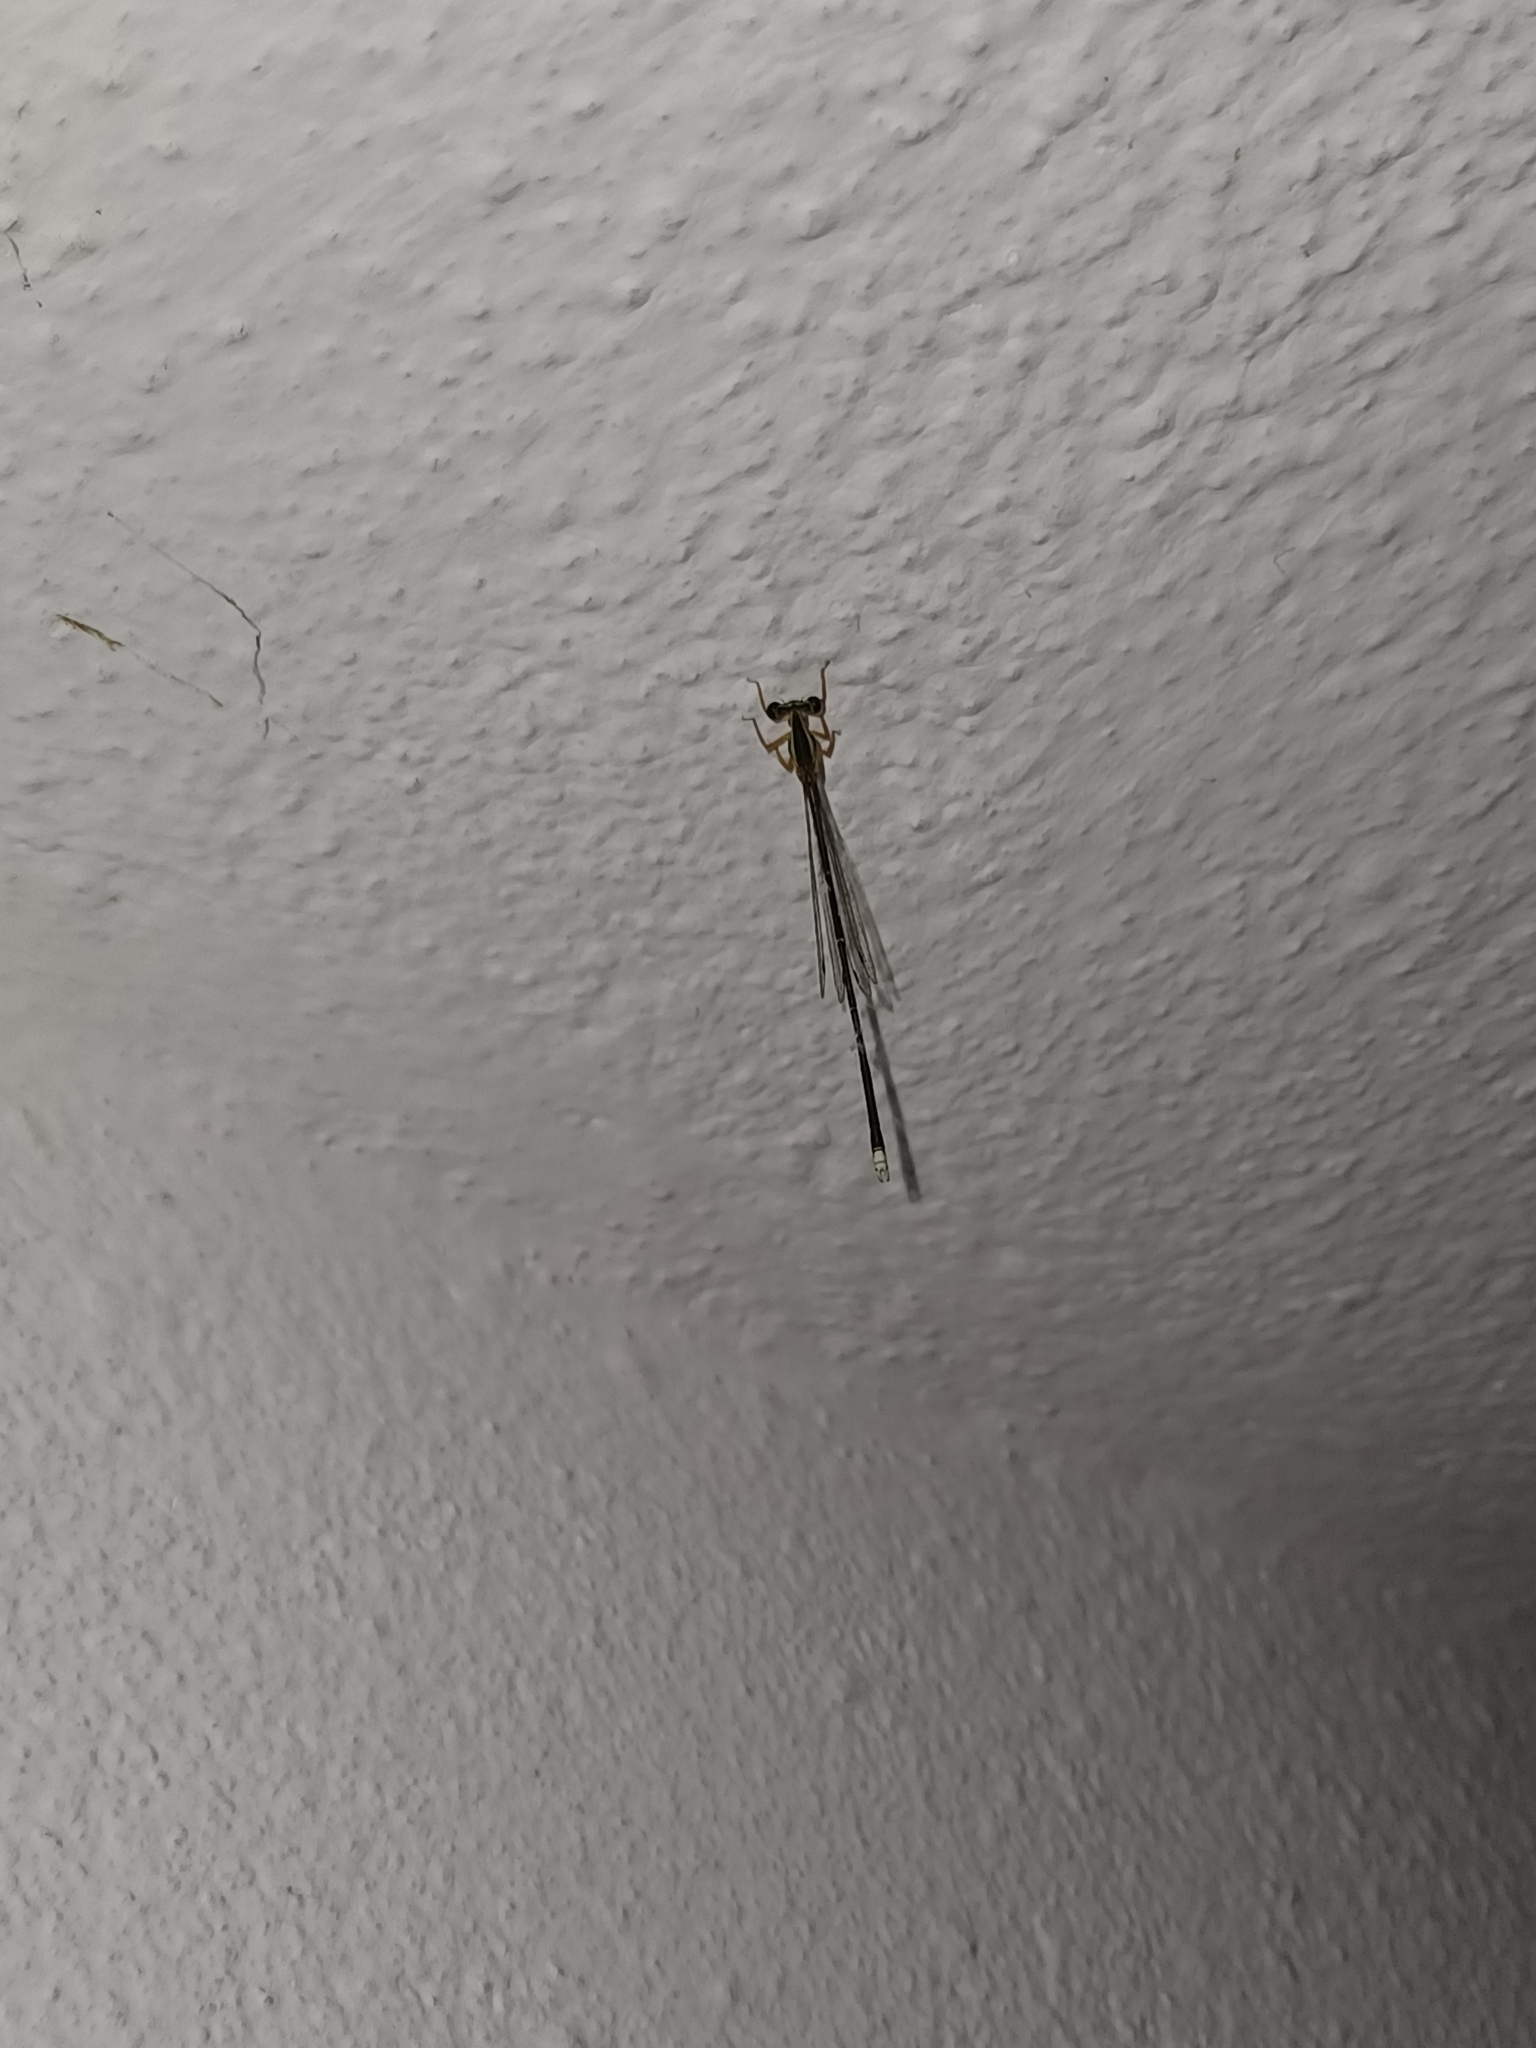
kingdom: Animalia
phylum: Arthropoda
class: Insecta
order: Odonata
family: Platycnemididae
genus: Copera
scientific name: Copera marginipes
